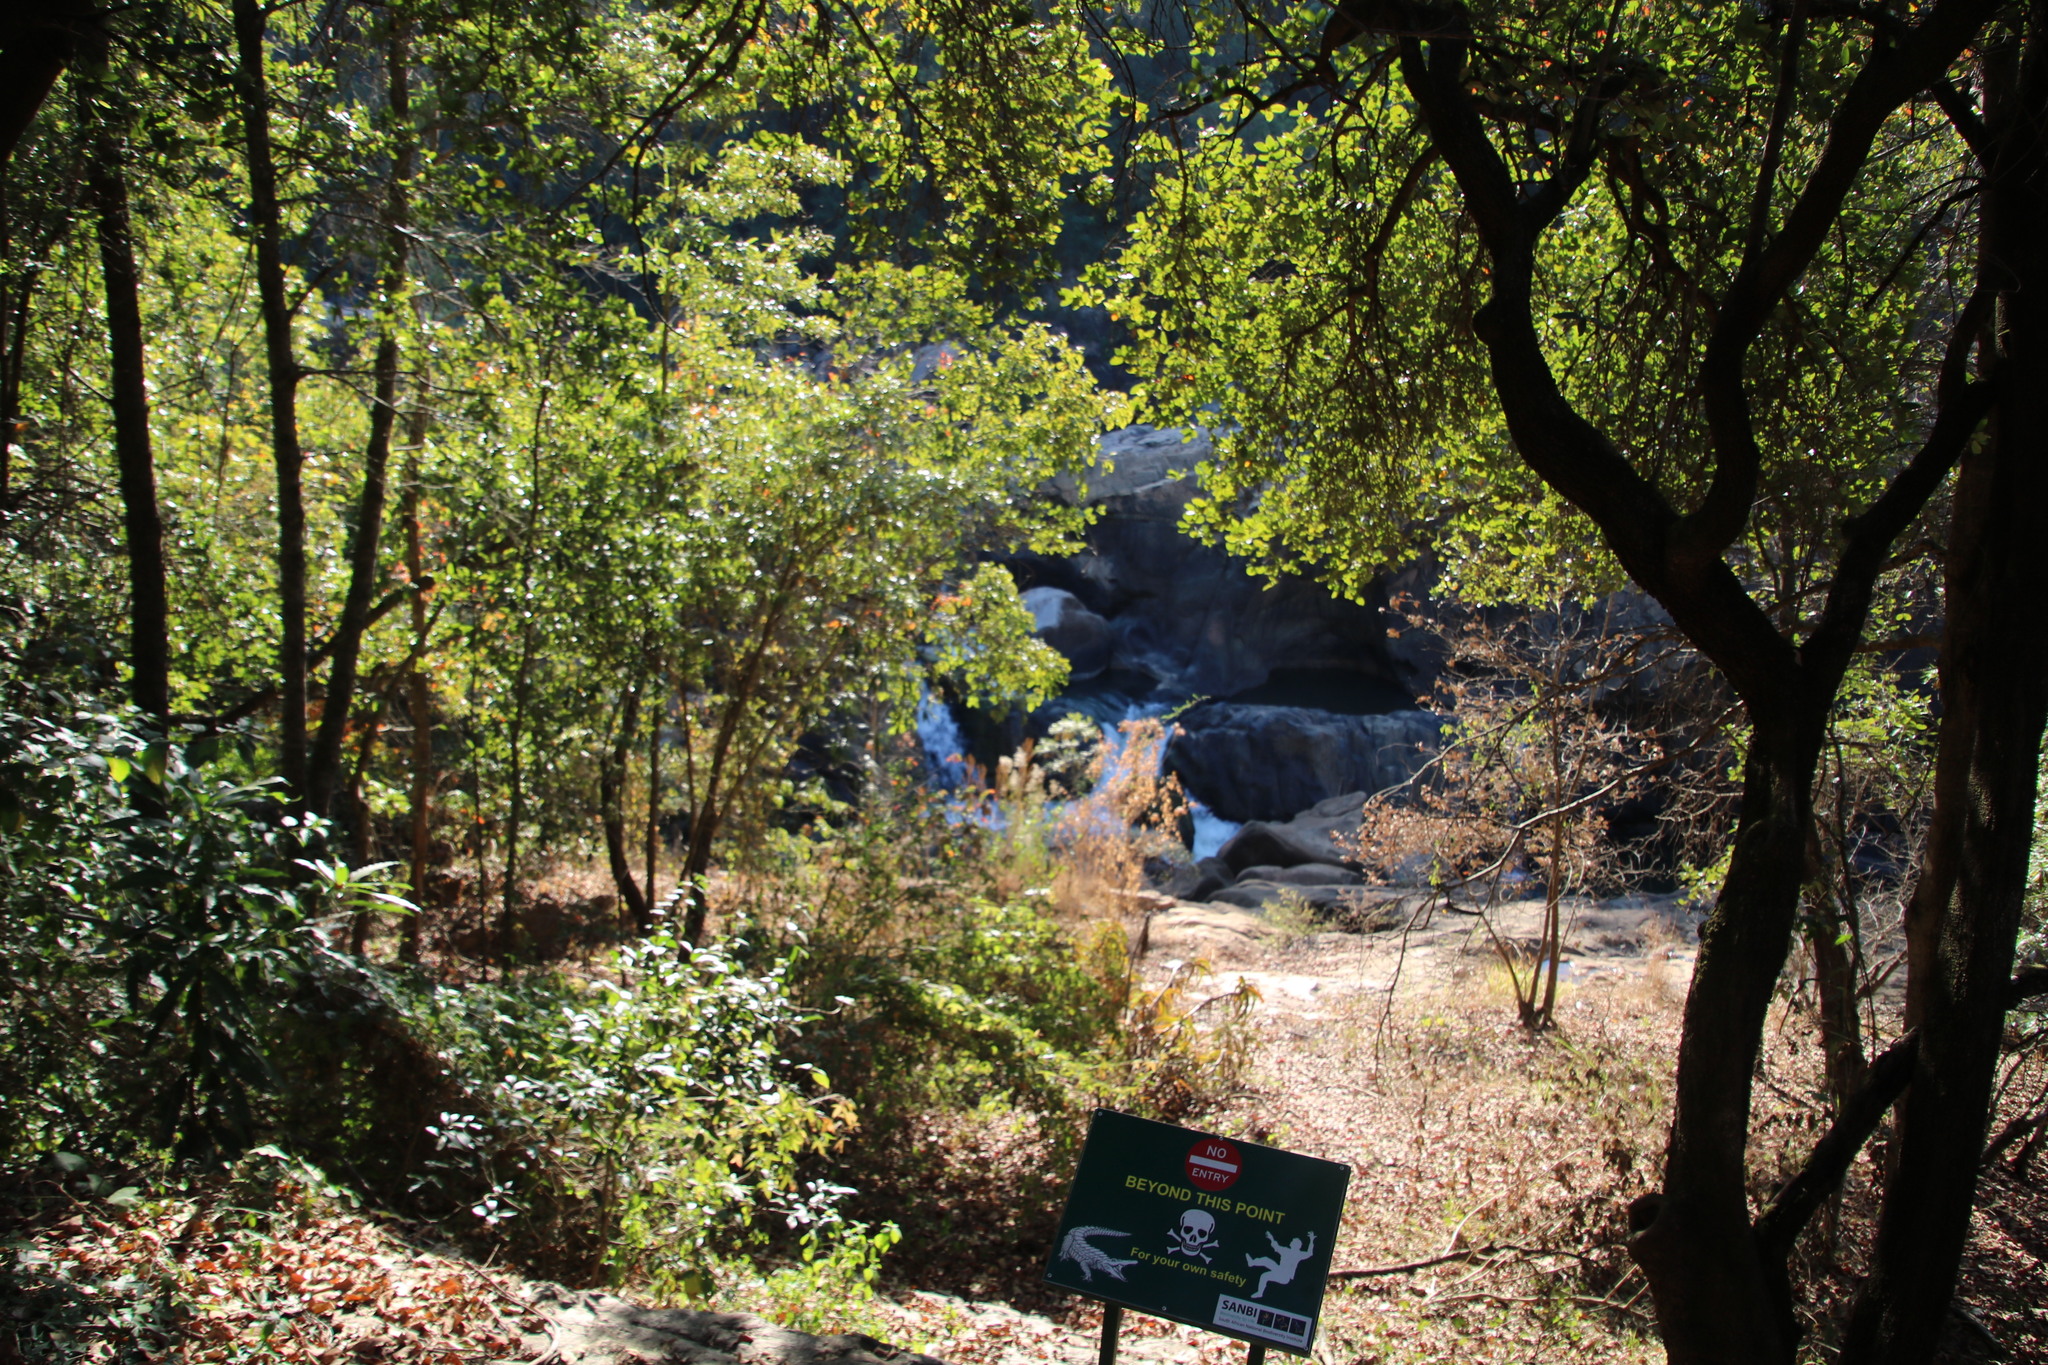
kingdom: Plantae
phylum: Tracheophyta
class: Magnoliopsida
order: Gentianales
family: Rubiaceae
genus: Breonadia
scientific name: Breonadia salicina
